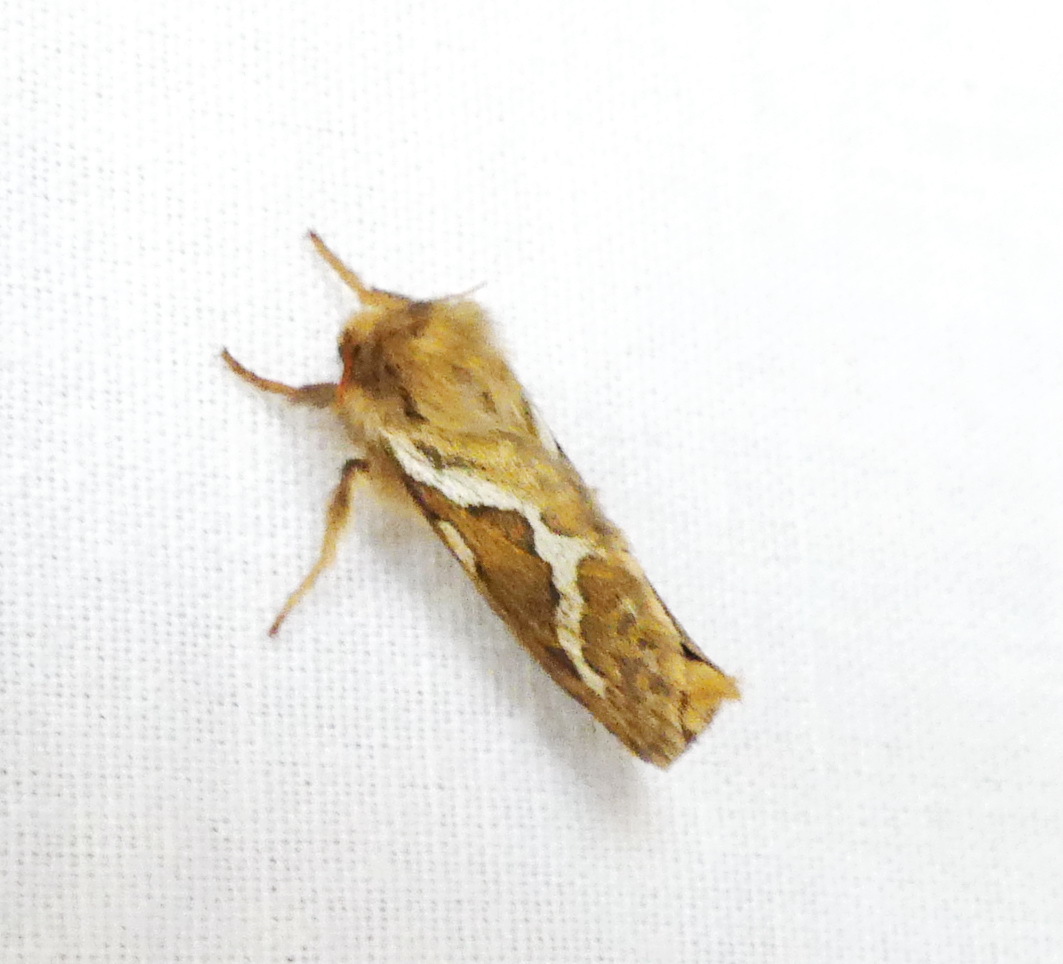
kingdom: Animalia
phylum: Arthropoda
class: Insecta
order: Lepidoptera
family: Hepialidae
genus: Korscheltellus
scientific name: Korscheltellus lupulina
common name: Common swift
